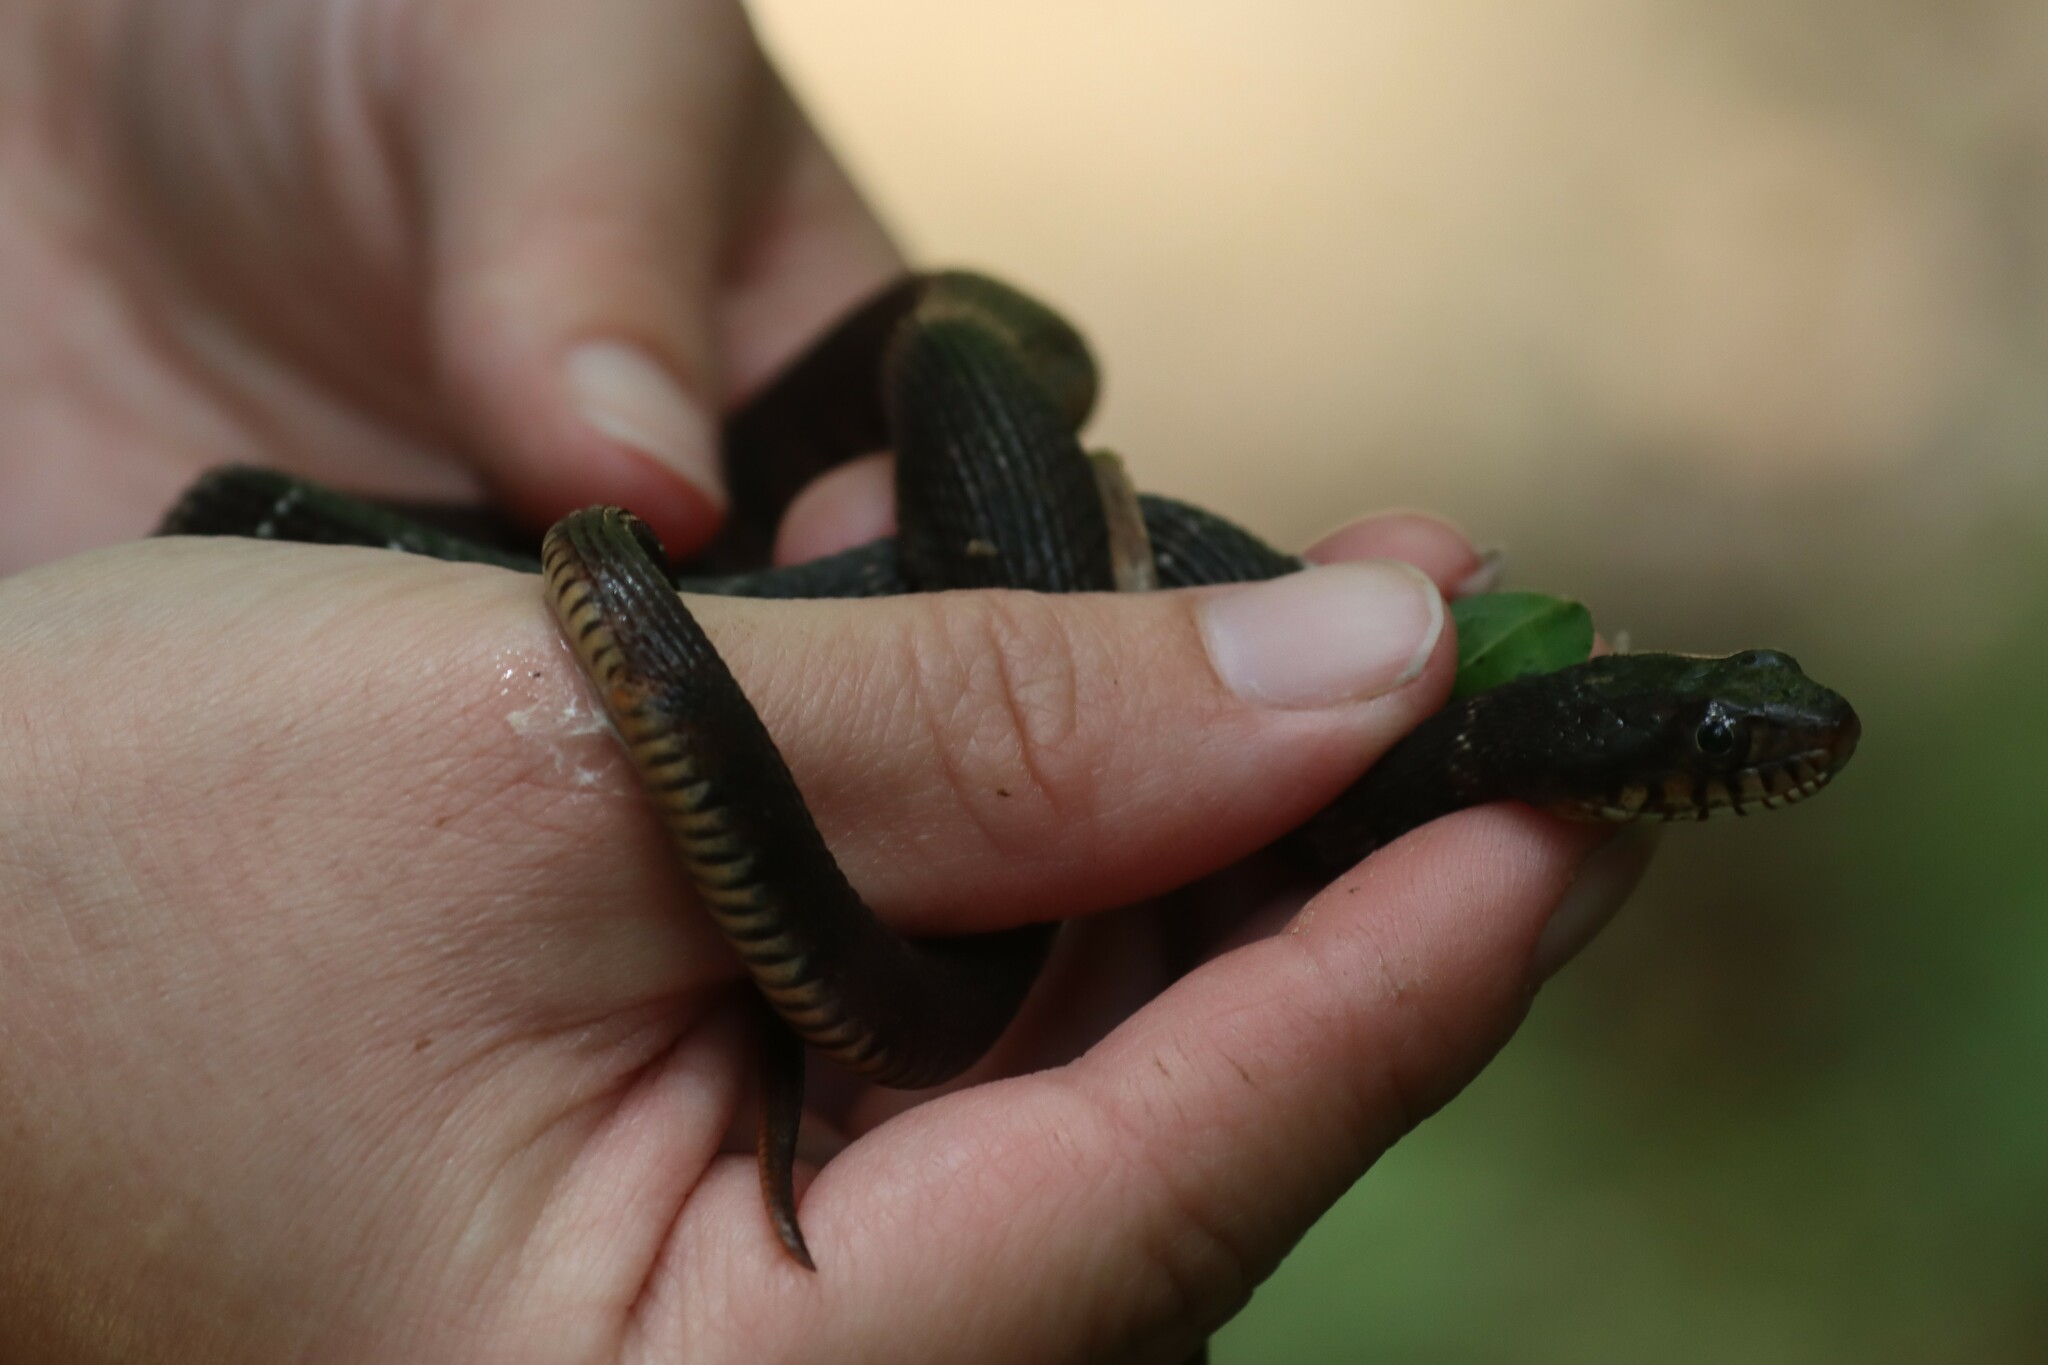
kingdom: Animalia
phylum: Chordata
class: Squamata
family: Colubridae
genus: Nerodia
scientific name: Nerodia erythrogaster
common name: Plainbelly water snake
